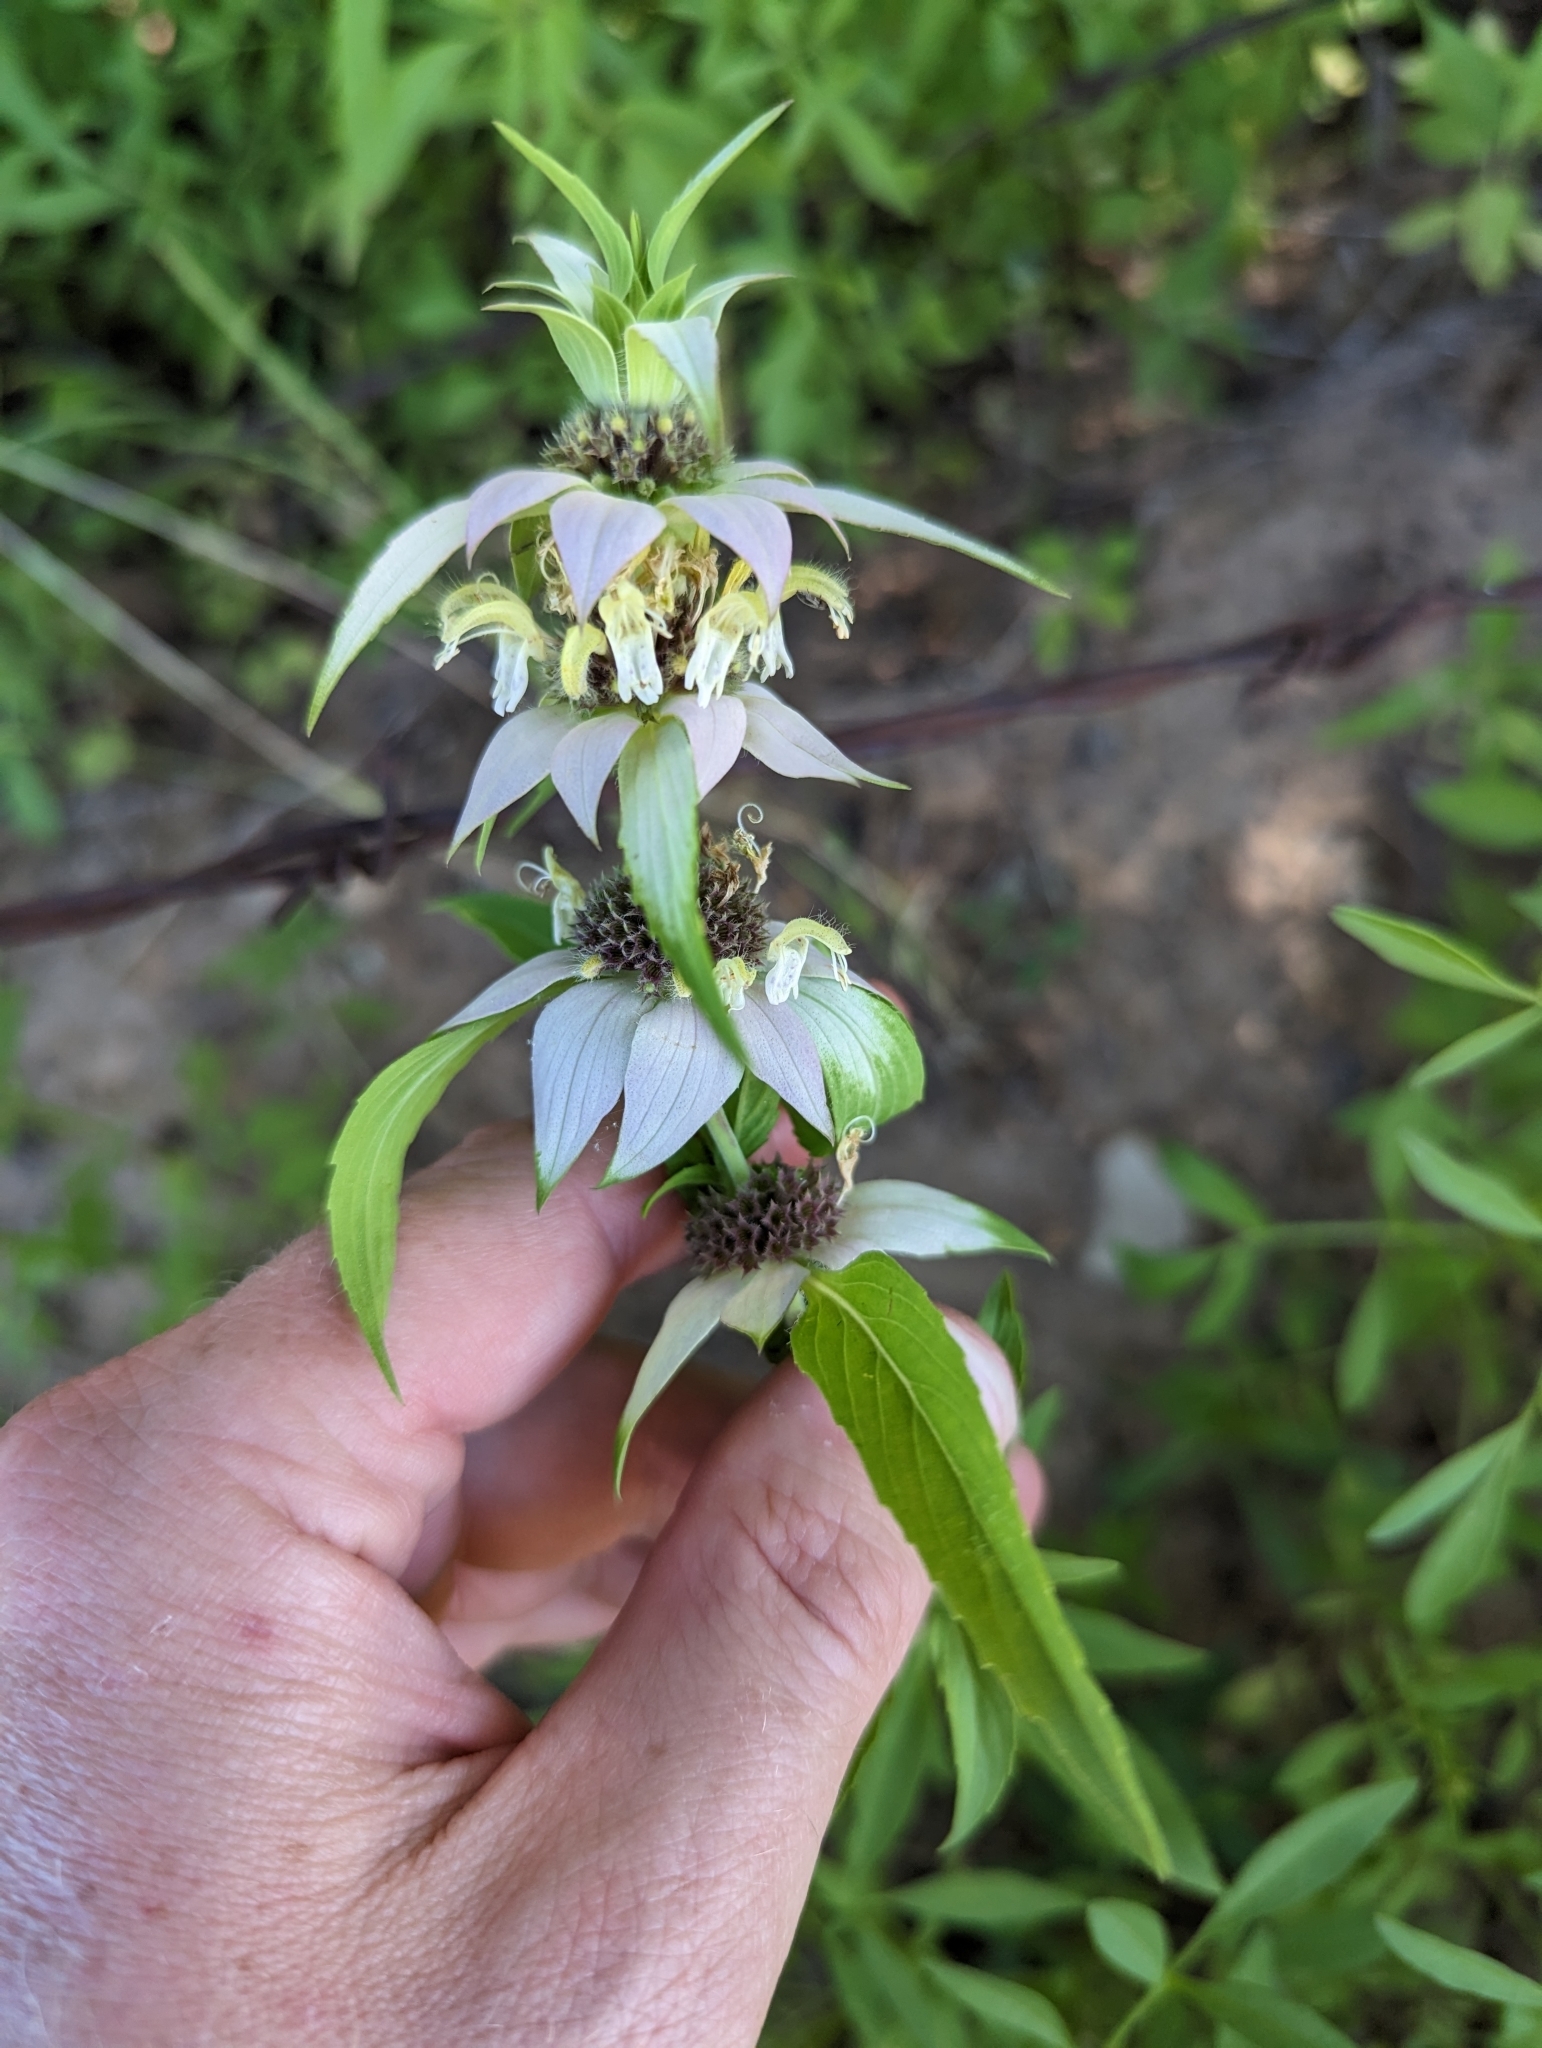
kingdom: Plantae
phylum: Tracheophyta
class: Magnoliopsida
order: Lamiales
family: Lamiaceae
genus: Monarda
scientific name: Monarda punctata
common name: Dotted monarda
